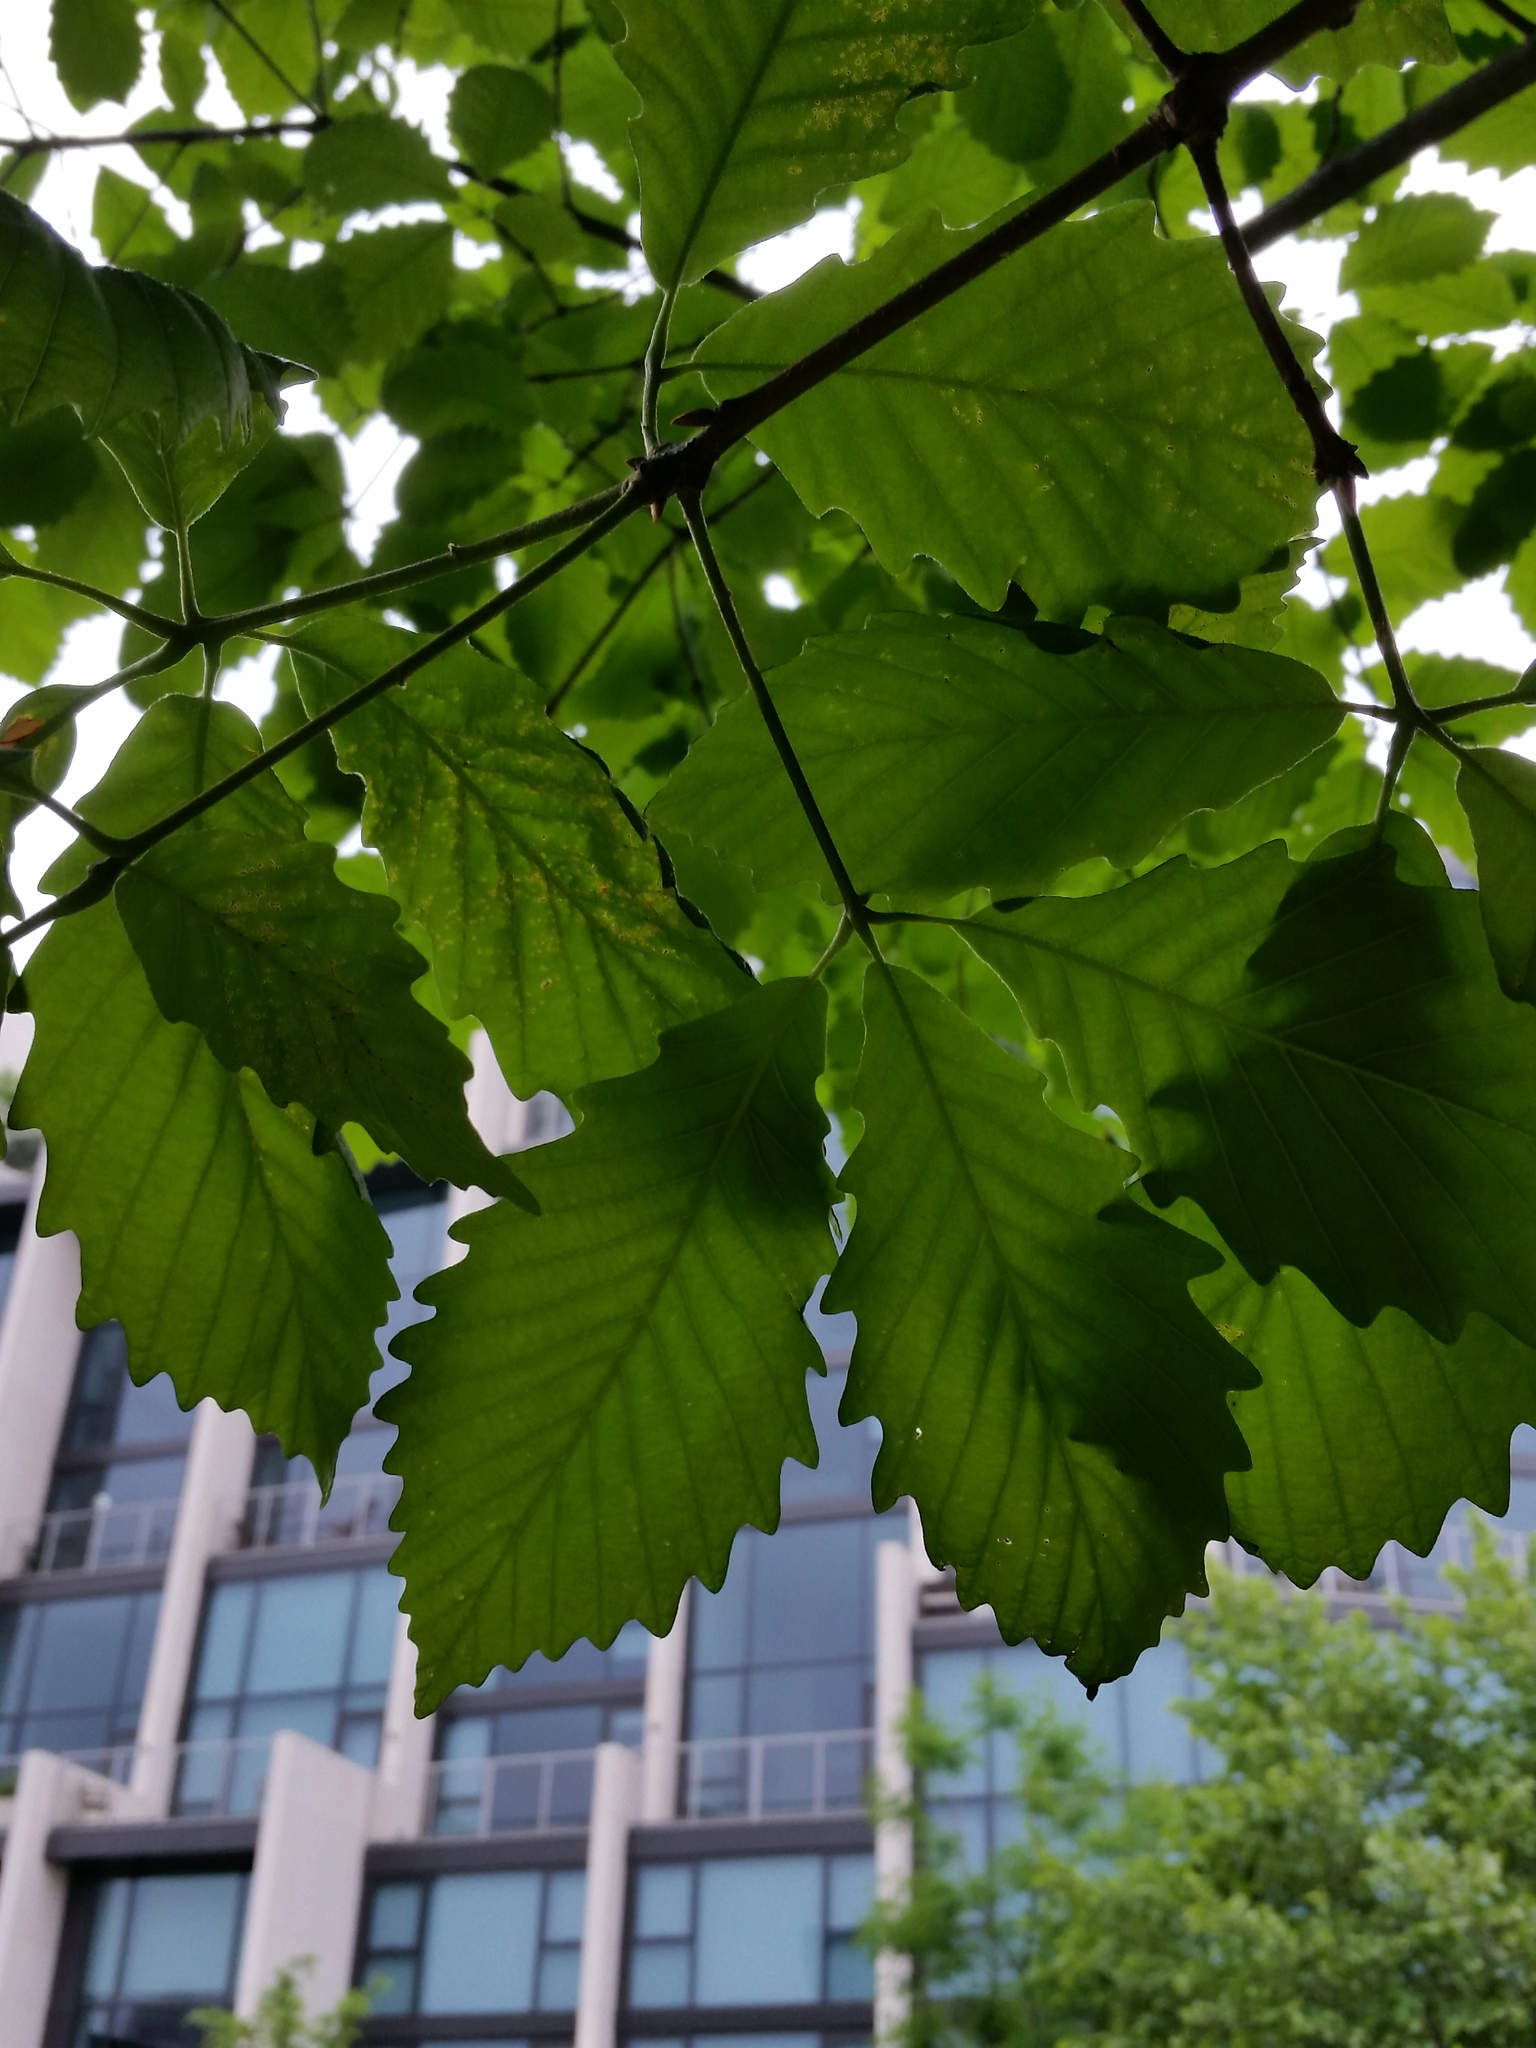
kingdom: Plantae
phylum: Tracheophyta
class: Magnoliopsida
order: Fagales
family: Fagaceae
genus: Quercus
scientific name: Quercus montana
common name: Chestnut oak
